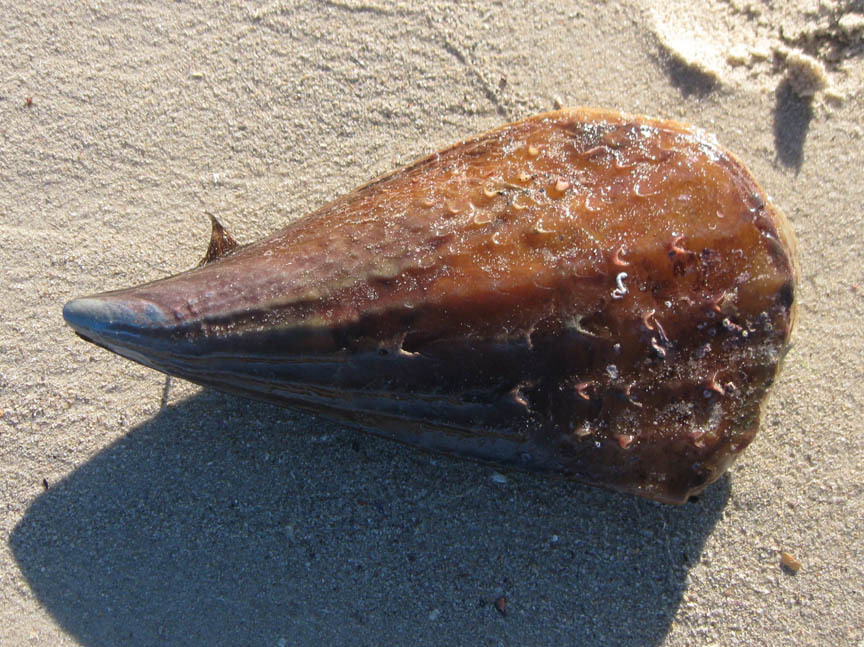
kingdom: Animalia
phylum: Mollusca
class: Bivalvia
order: Ostreida
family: Pinnidae
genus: Atrina
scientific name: Atrina squamifera
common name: Horse mussel
